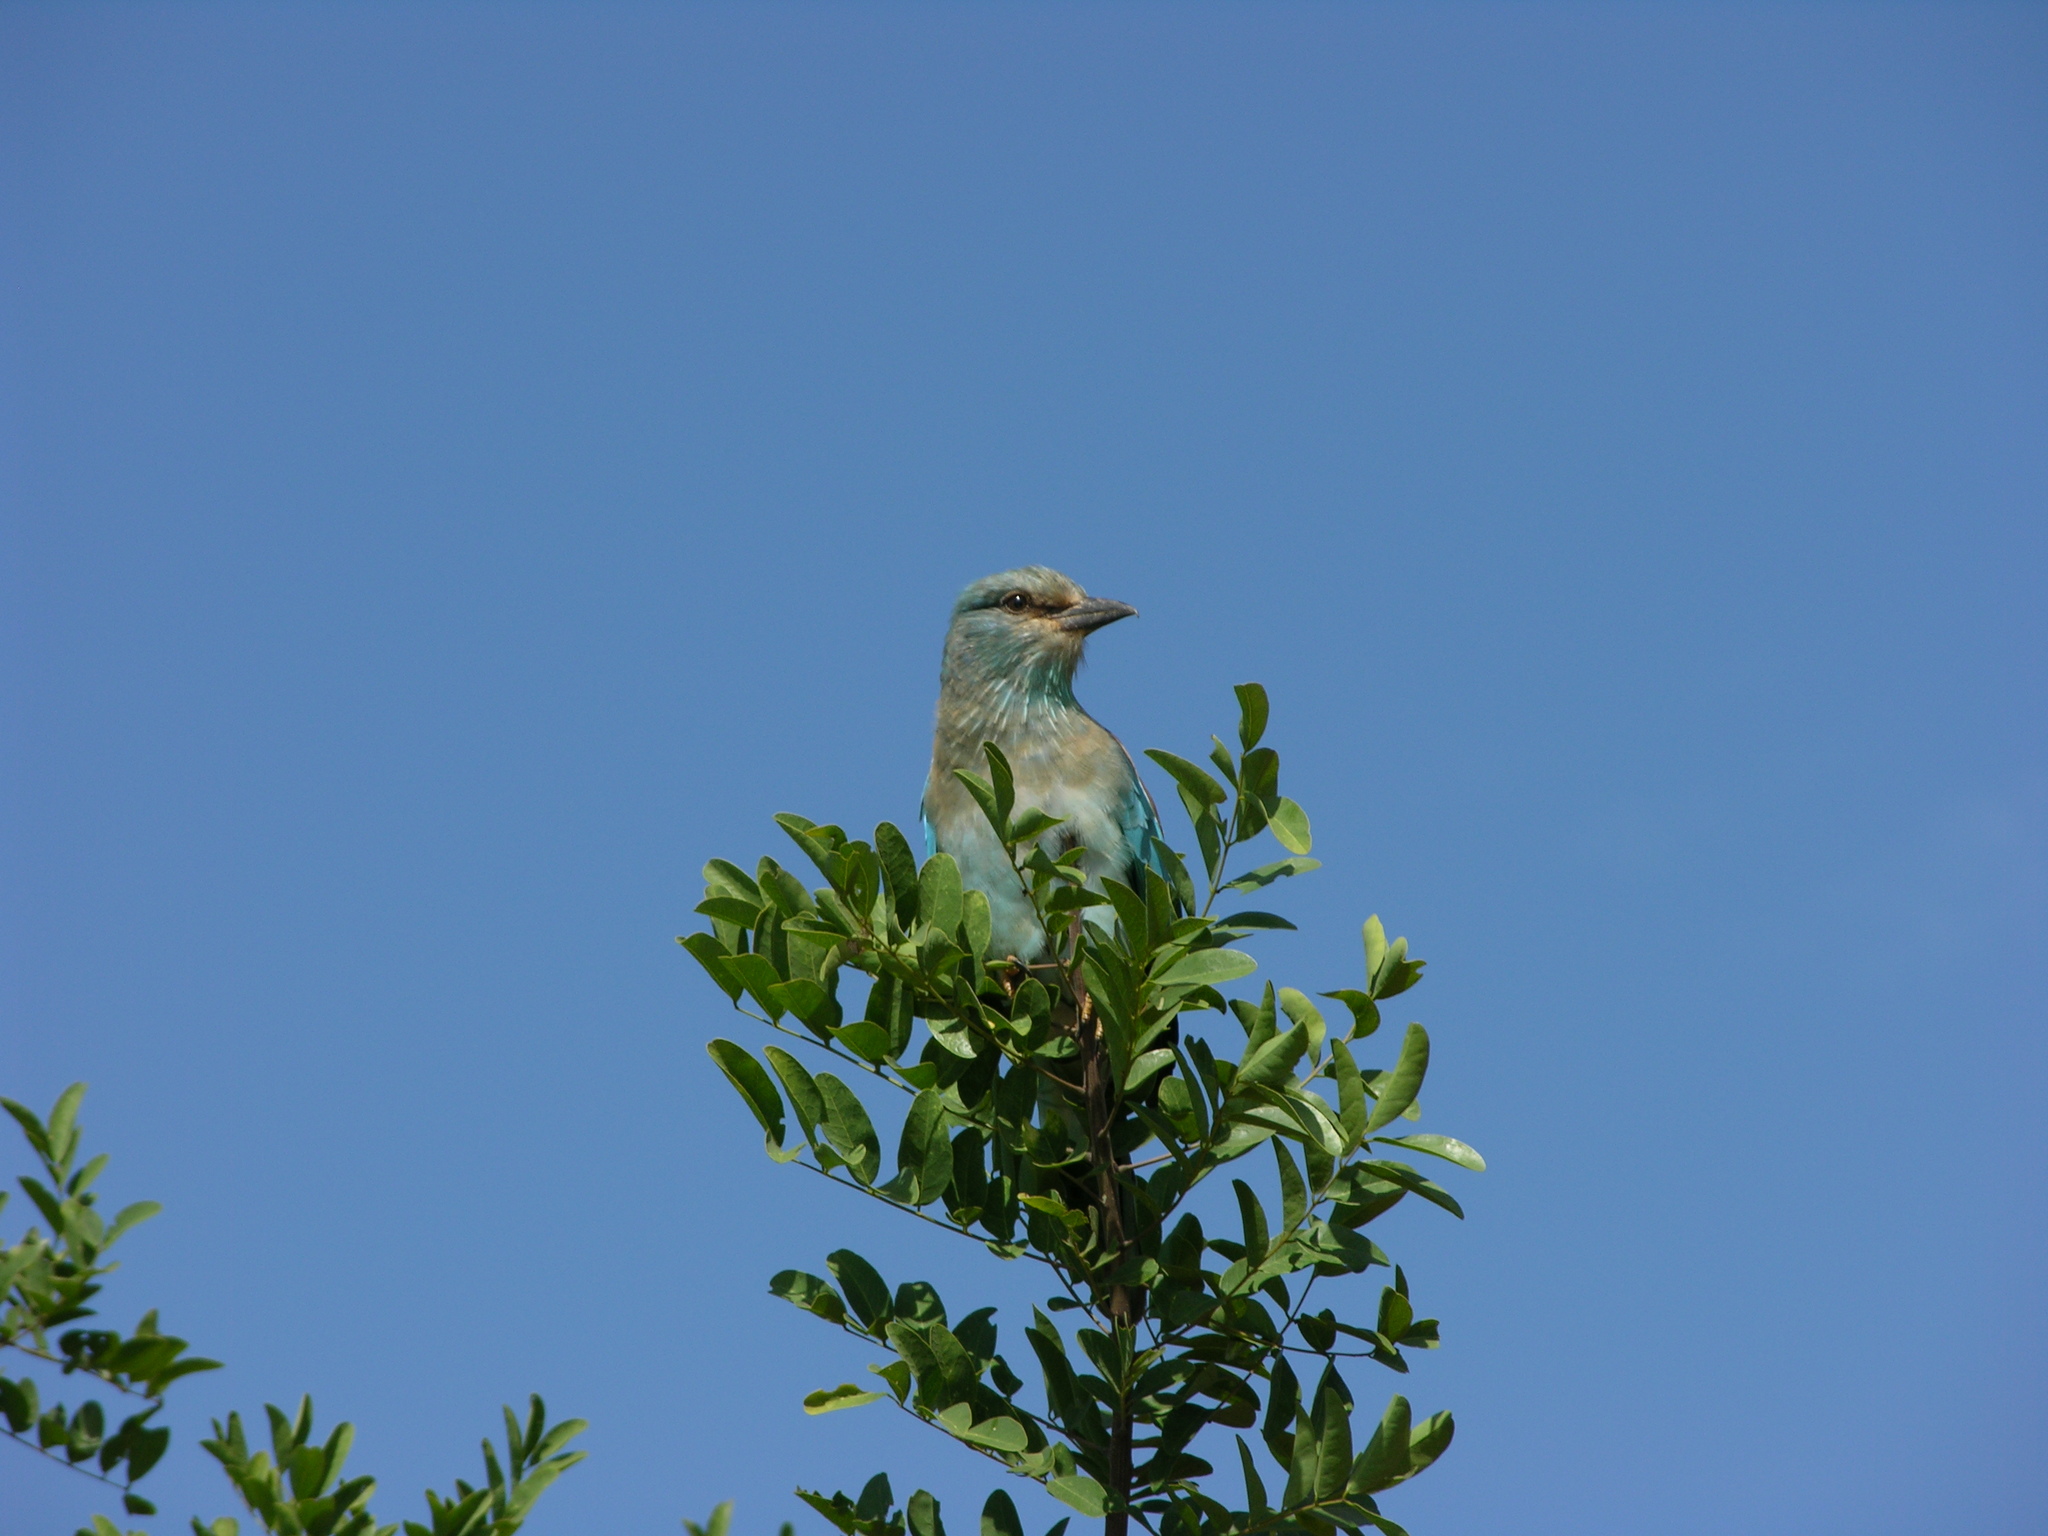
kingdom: Animalia
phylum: Chordata
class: Aves
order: Coraciiformes
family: Coraciidae
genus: Coracias
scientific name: Coracias garrulus
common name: European roller
